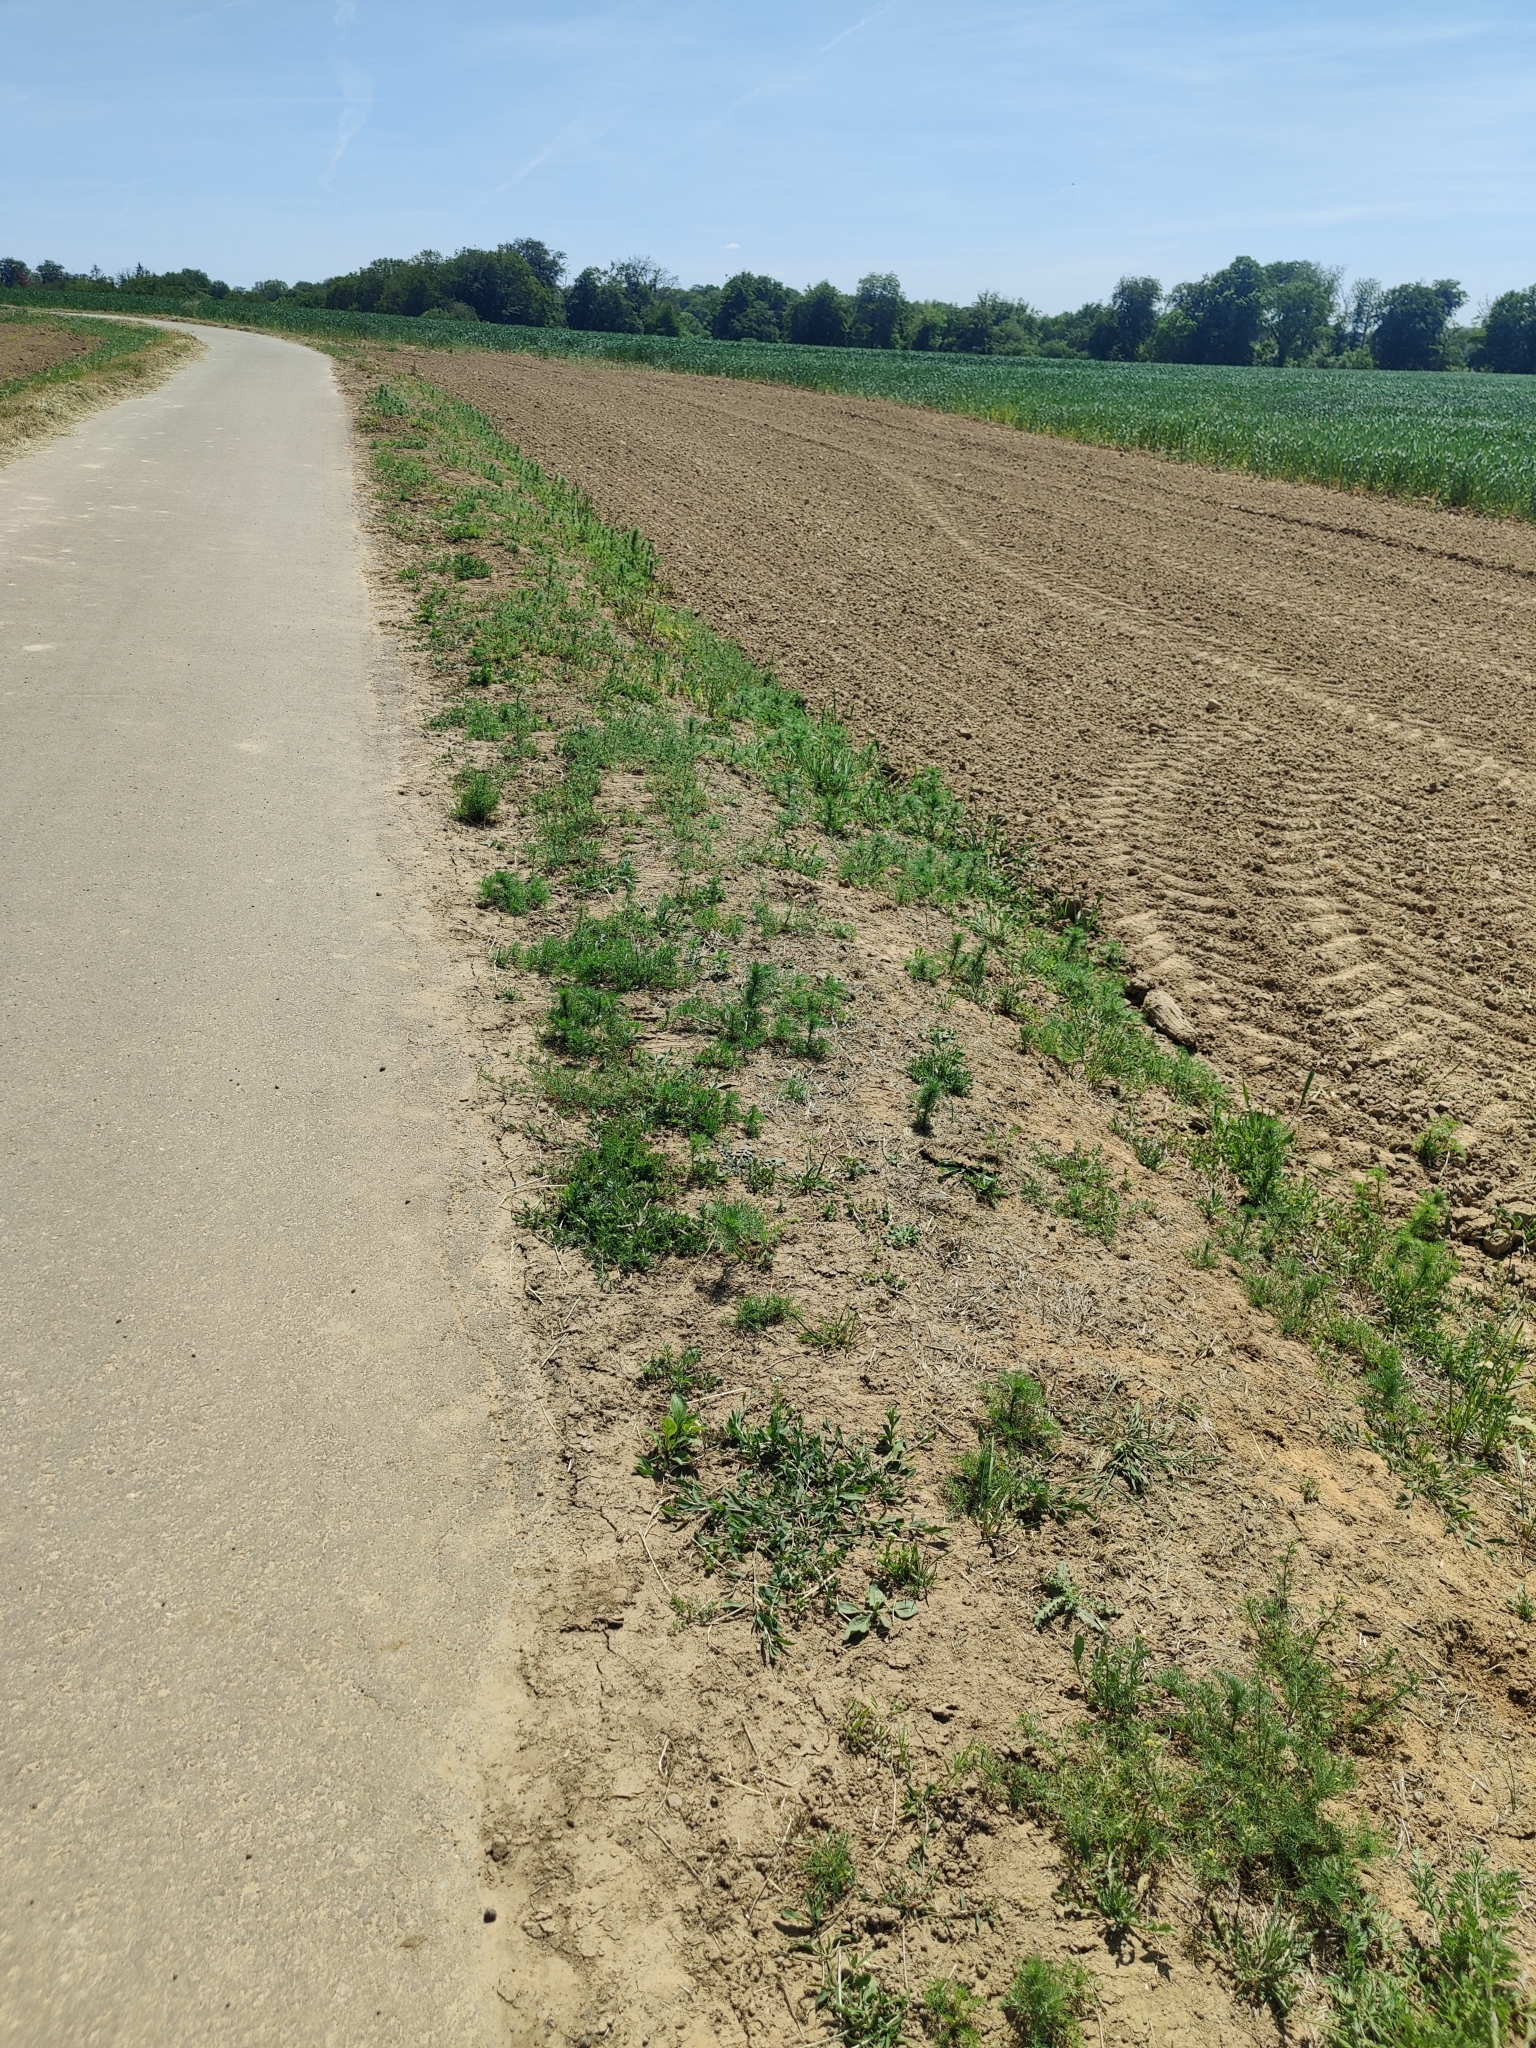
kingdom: Plantae
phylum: Tracheophyta
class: Magnoliopsida
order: Brassicales
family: Brassicaceae
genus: Thlaspi
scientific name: Thlaspi arvense
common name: Field pennycress
